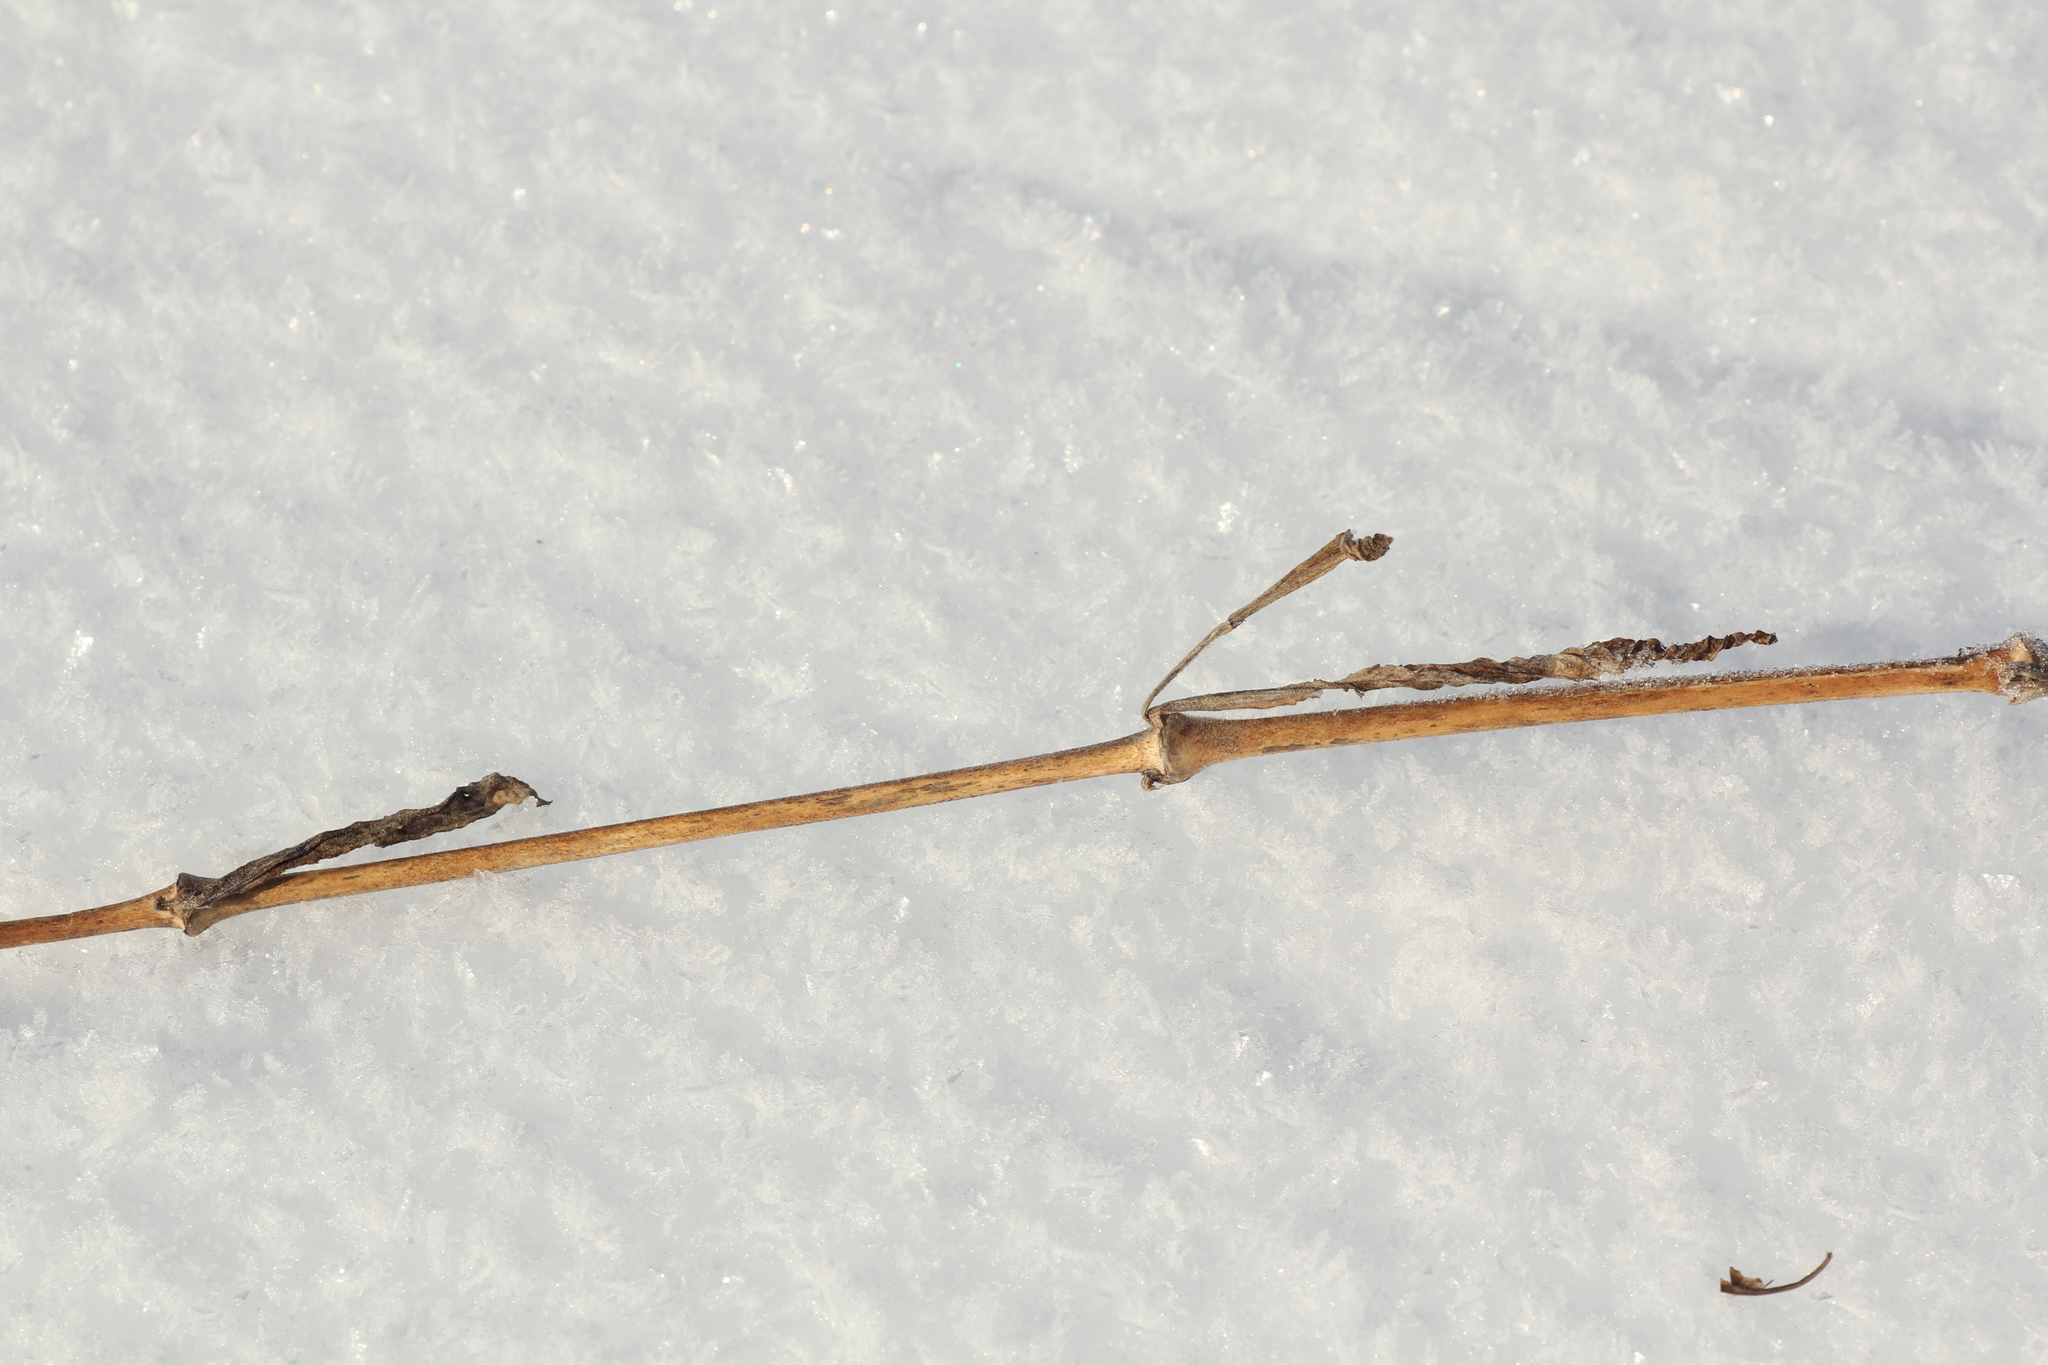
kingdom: Plantae
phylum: Tracheophyta
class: Magnoliopsida
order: Caryophyllales
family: Caryophyllaceae
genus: Silene
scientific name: Silene latifolia
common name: White campion
